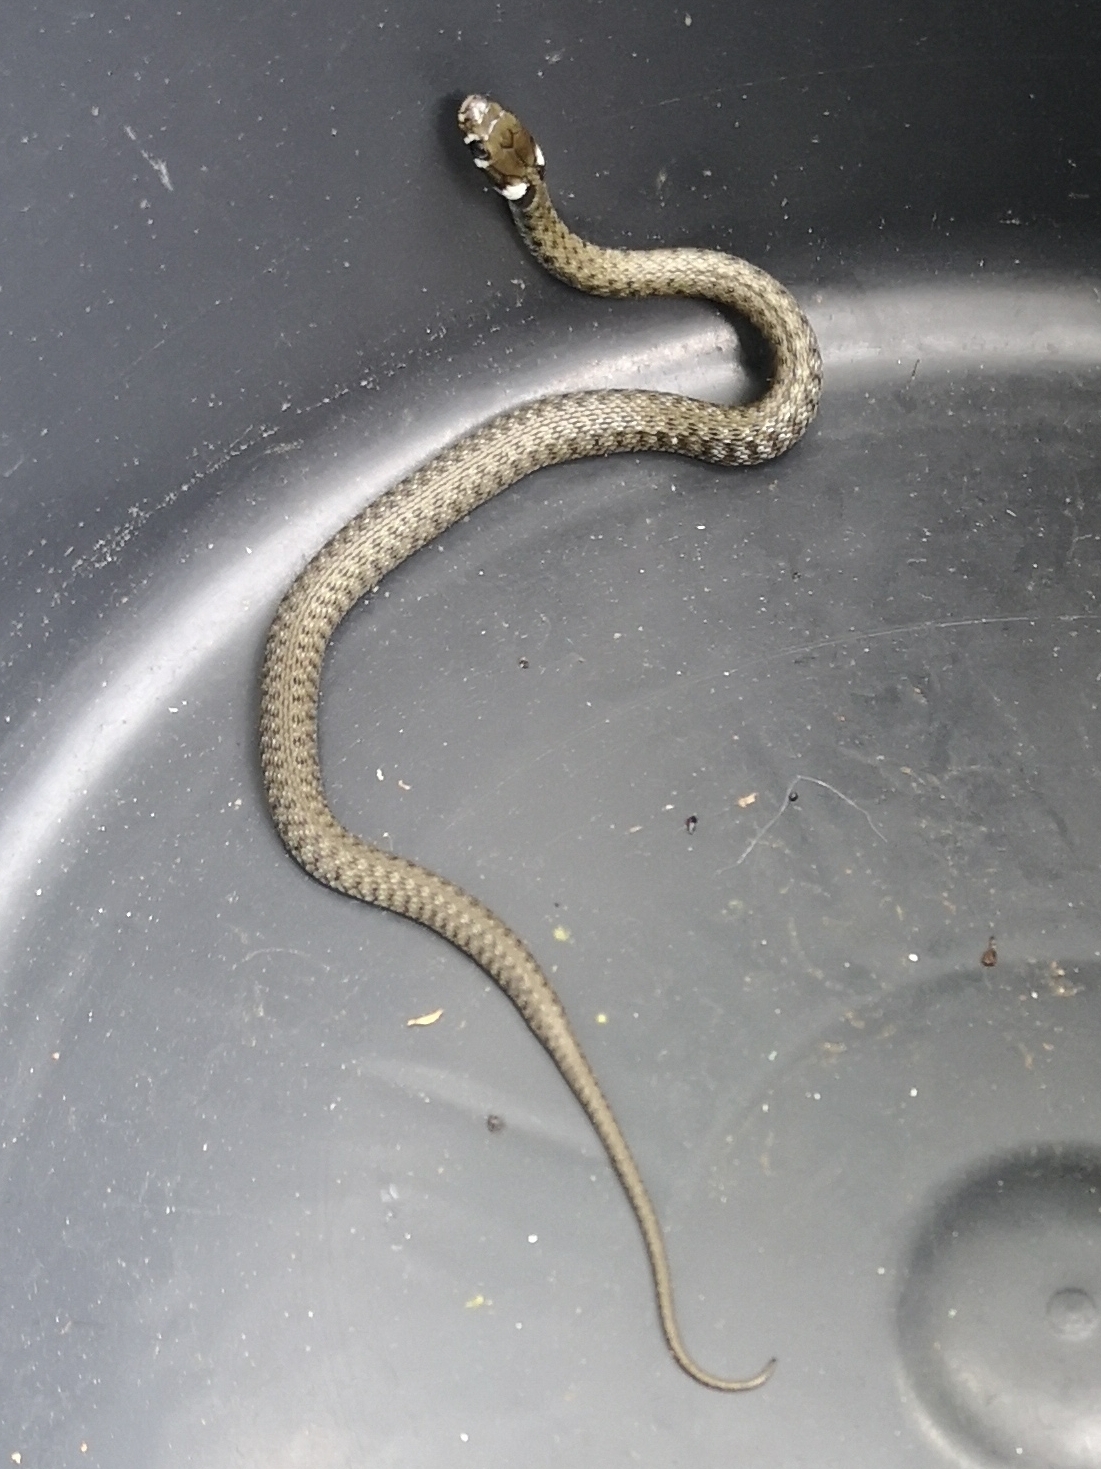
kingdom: Animalia
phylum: Chordata
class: Squamata
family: Colubridae
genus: Natrix
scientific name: Natrix natrix
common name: Grass snake
